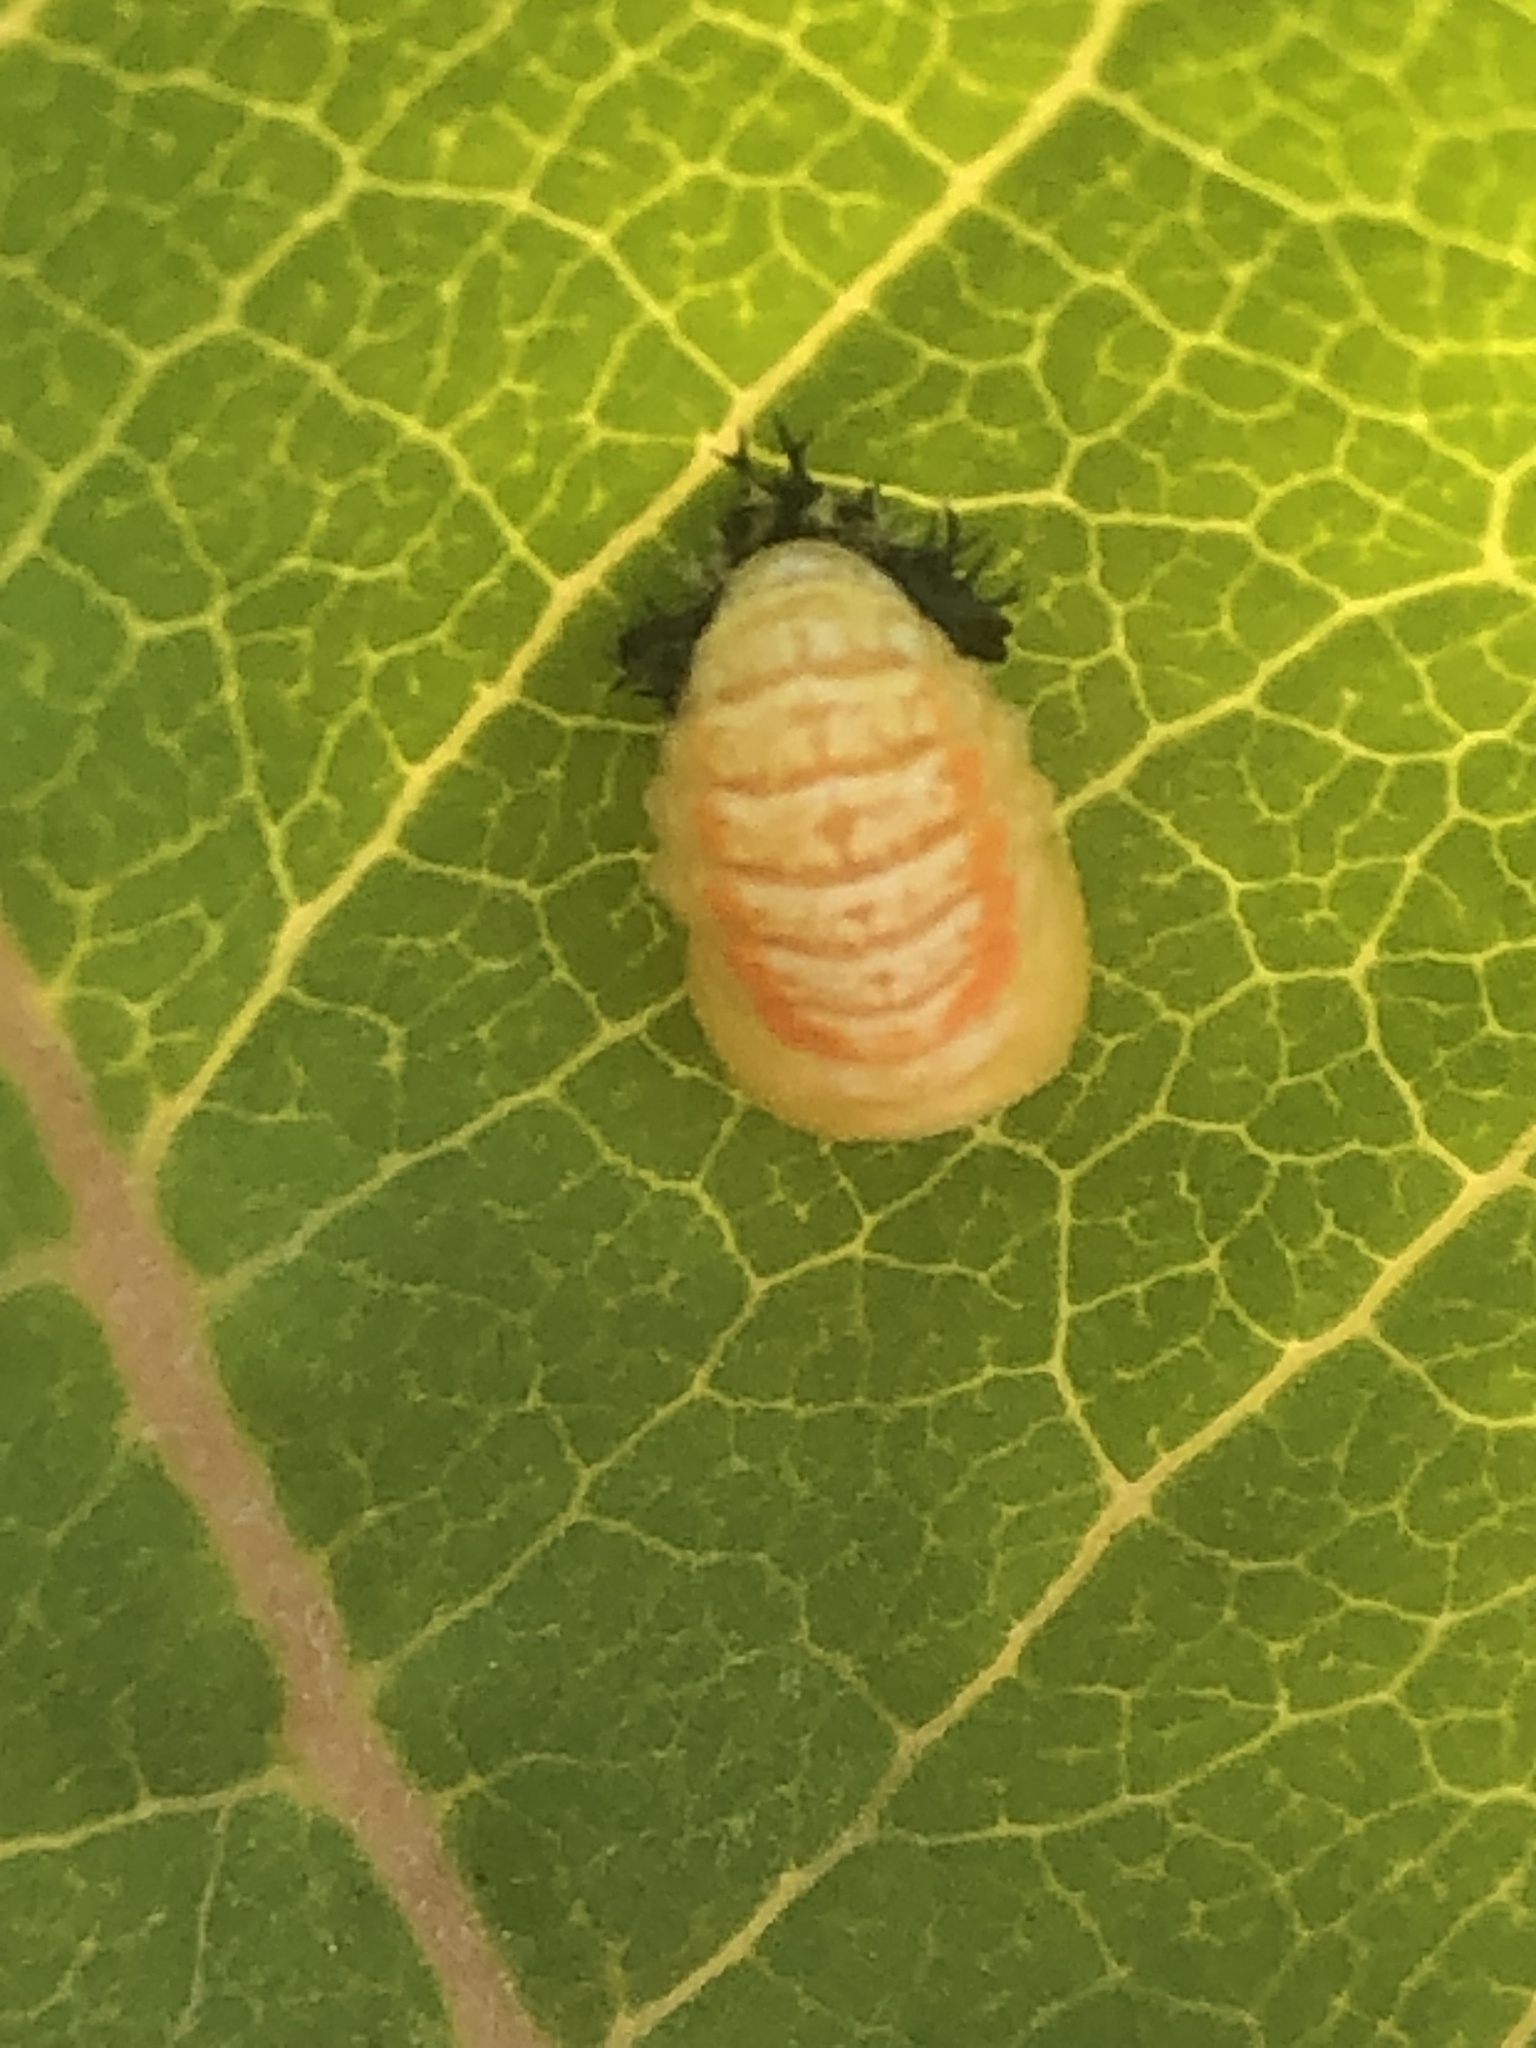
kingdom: Animalia
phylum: Arthropoda
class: Insecta
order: Coleoptera
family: Coccinellidae
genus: Harmonia
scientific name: Harmonia axyridis
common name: Harlequin ladybird
